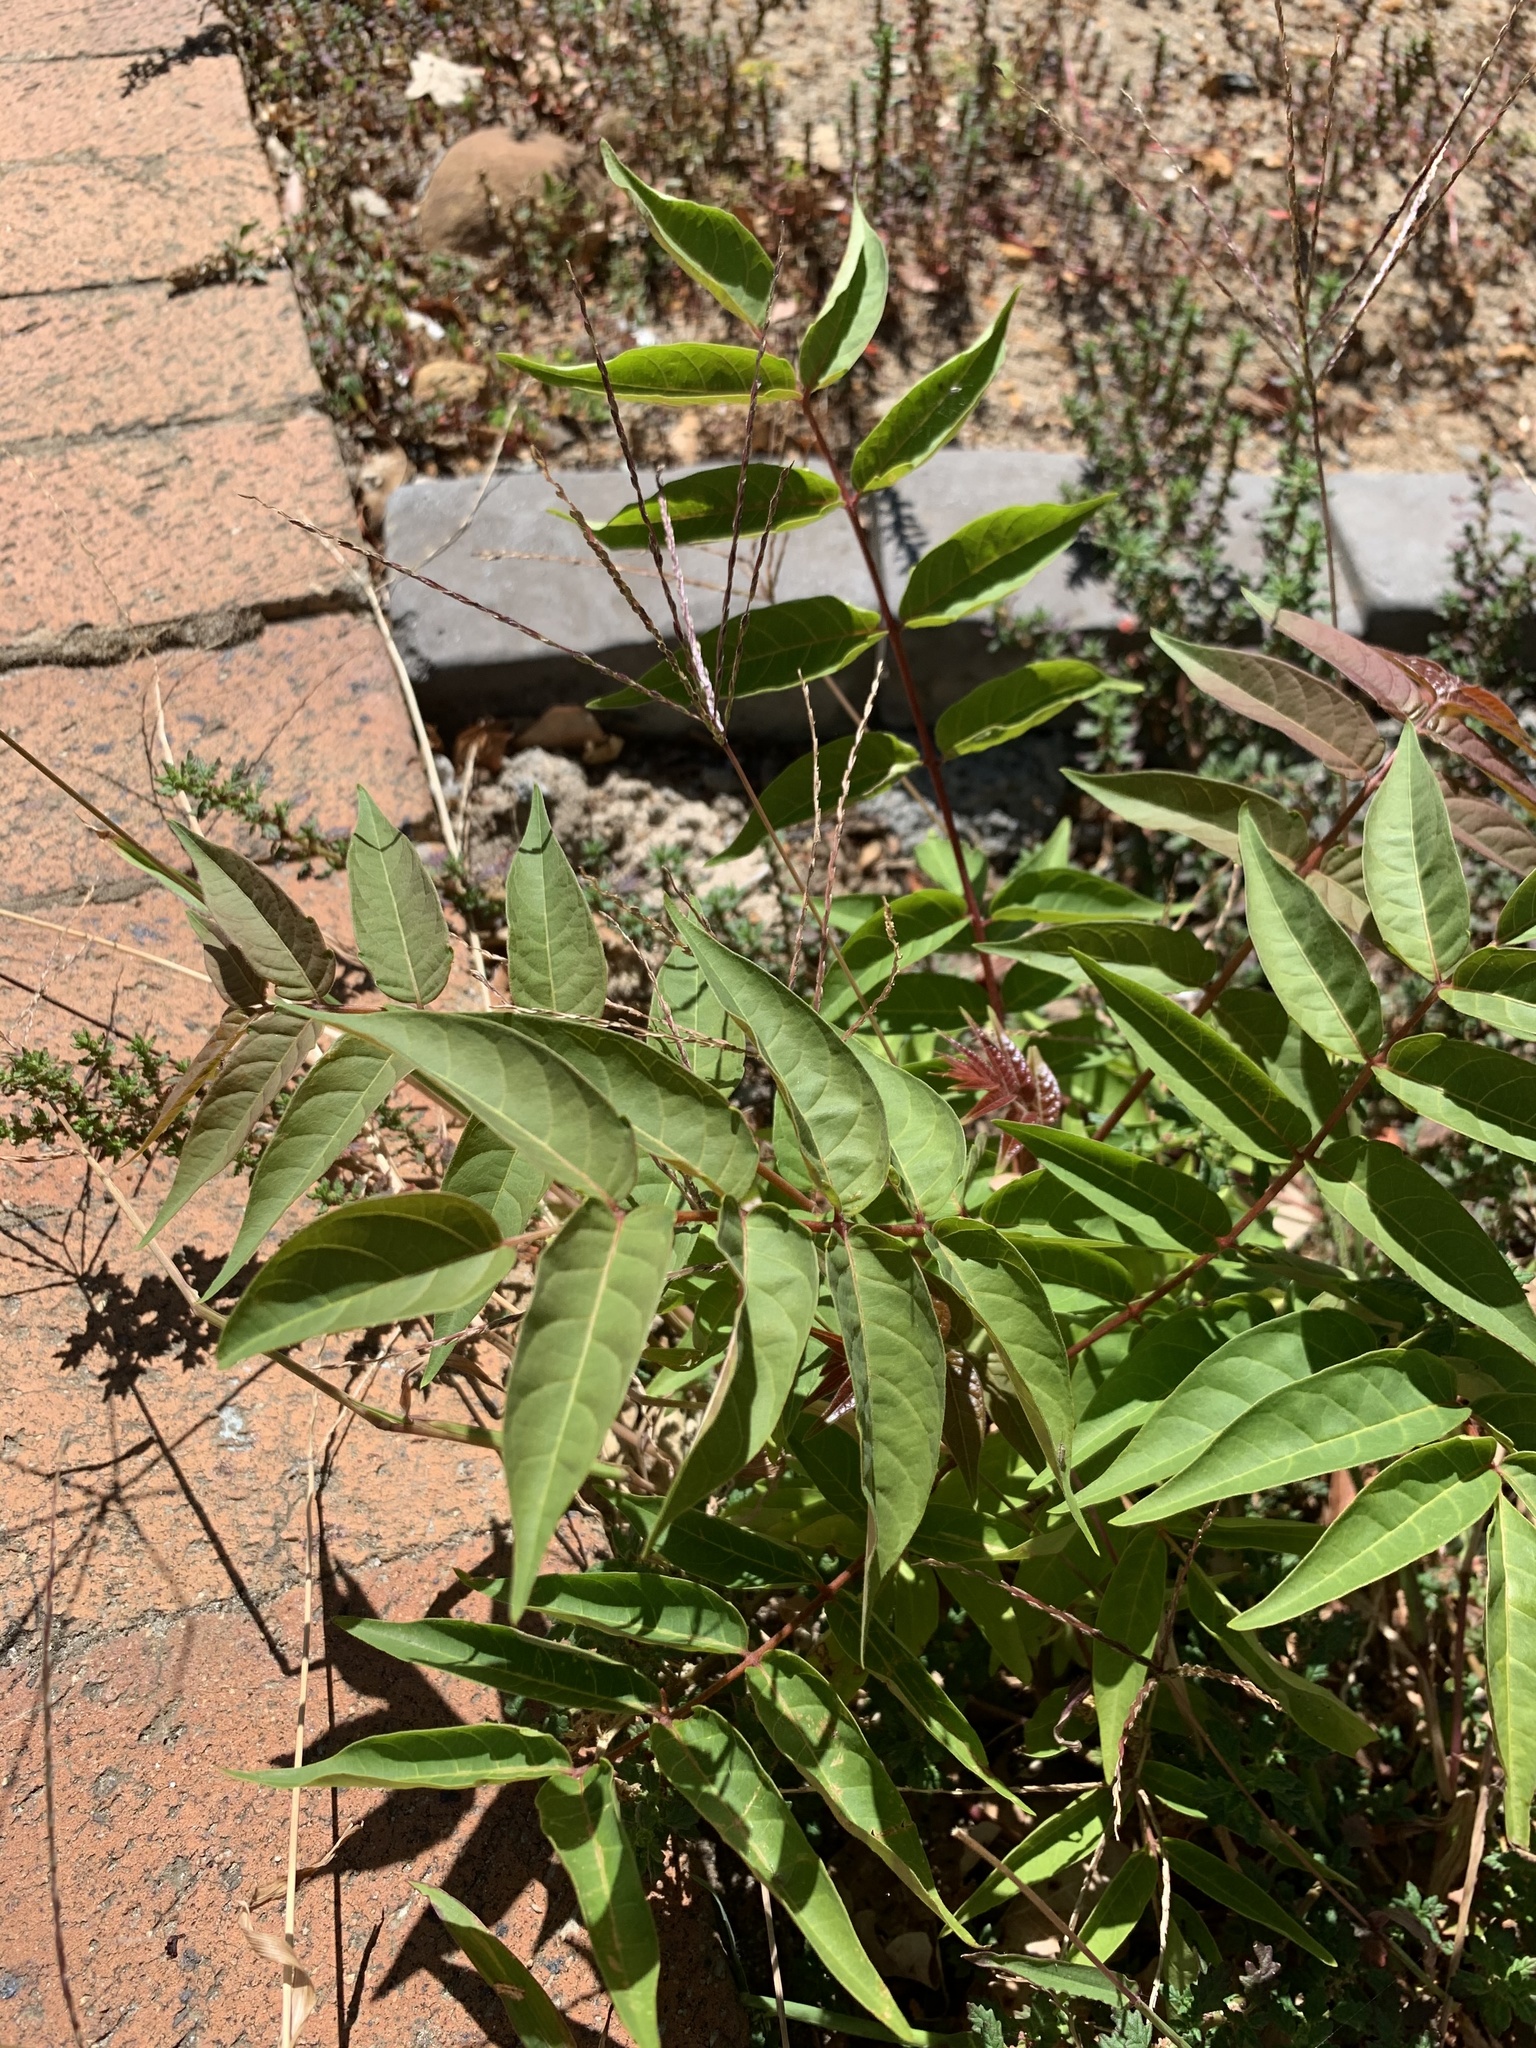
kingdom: Plantae
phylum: Tracheophyta
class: Magnoliopsida
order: Sapindales
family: Simaroubaceae
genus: Ailanthus
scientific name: Ailanthus altissima
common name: Tree-of-heaven
